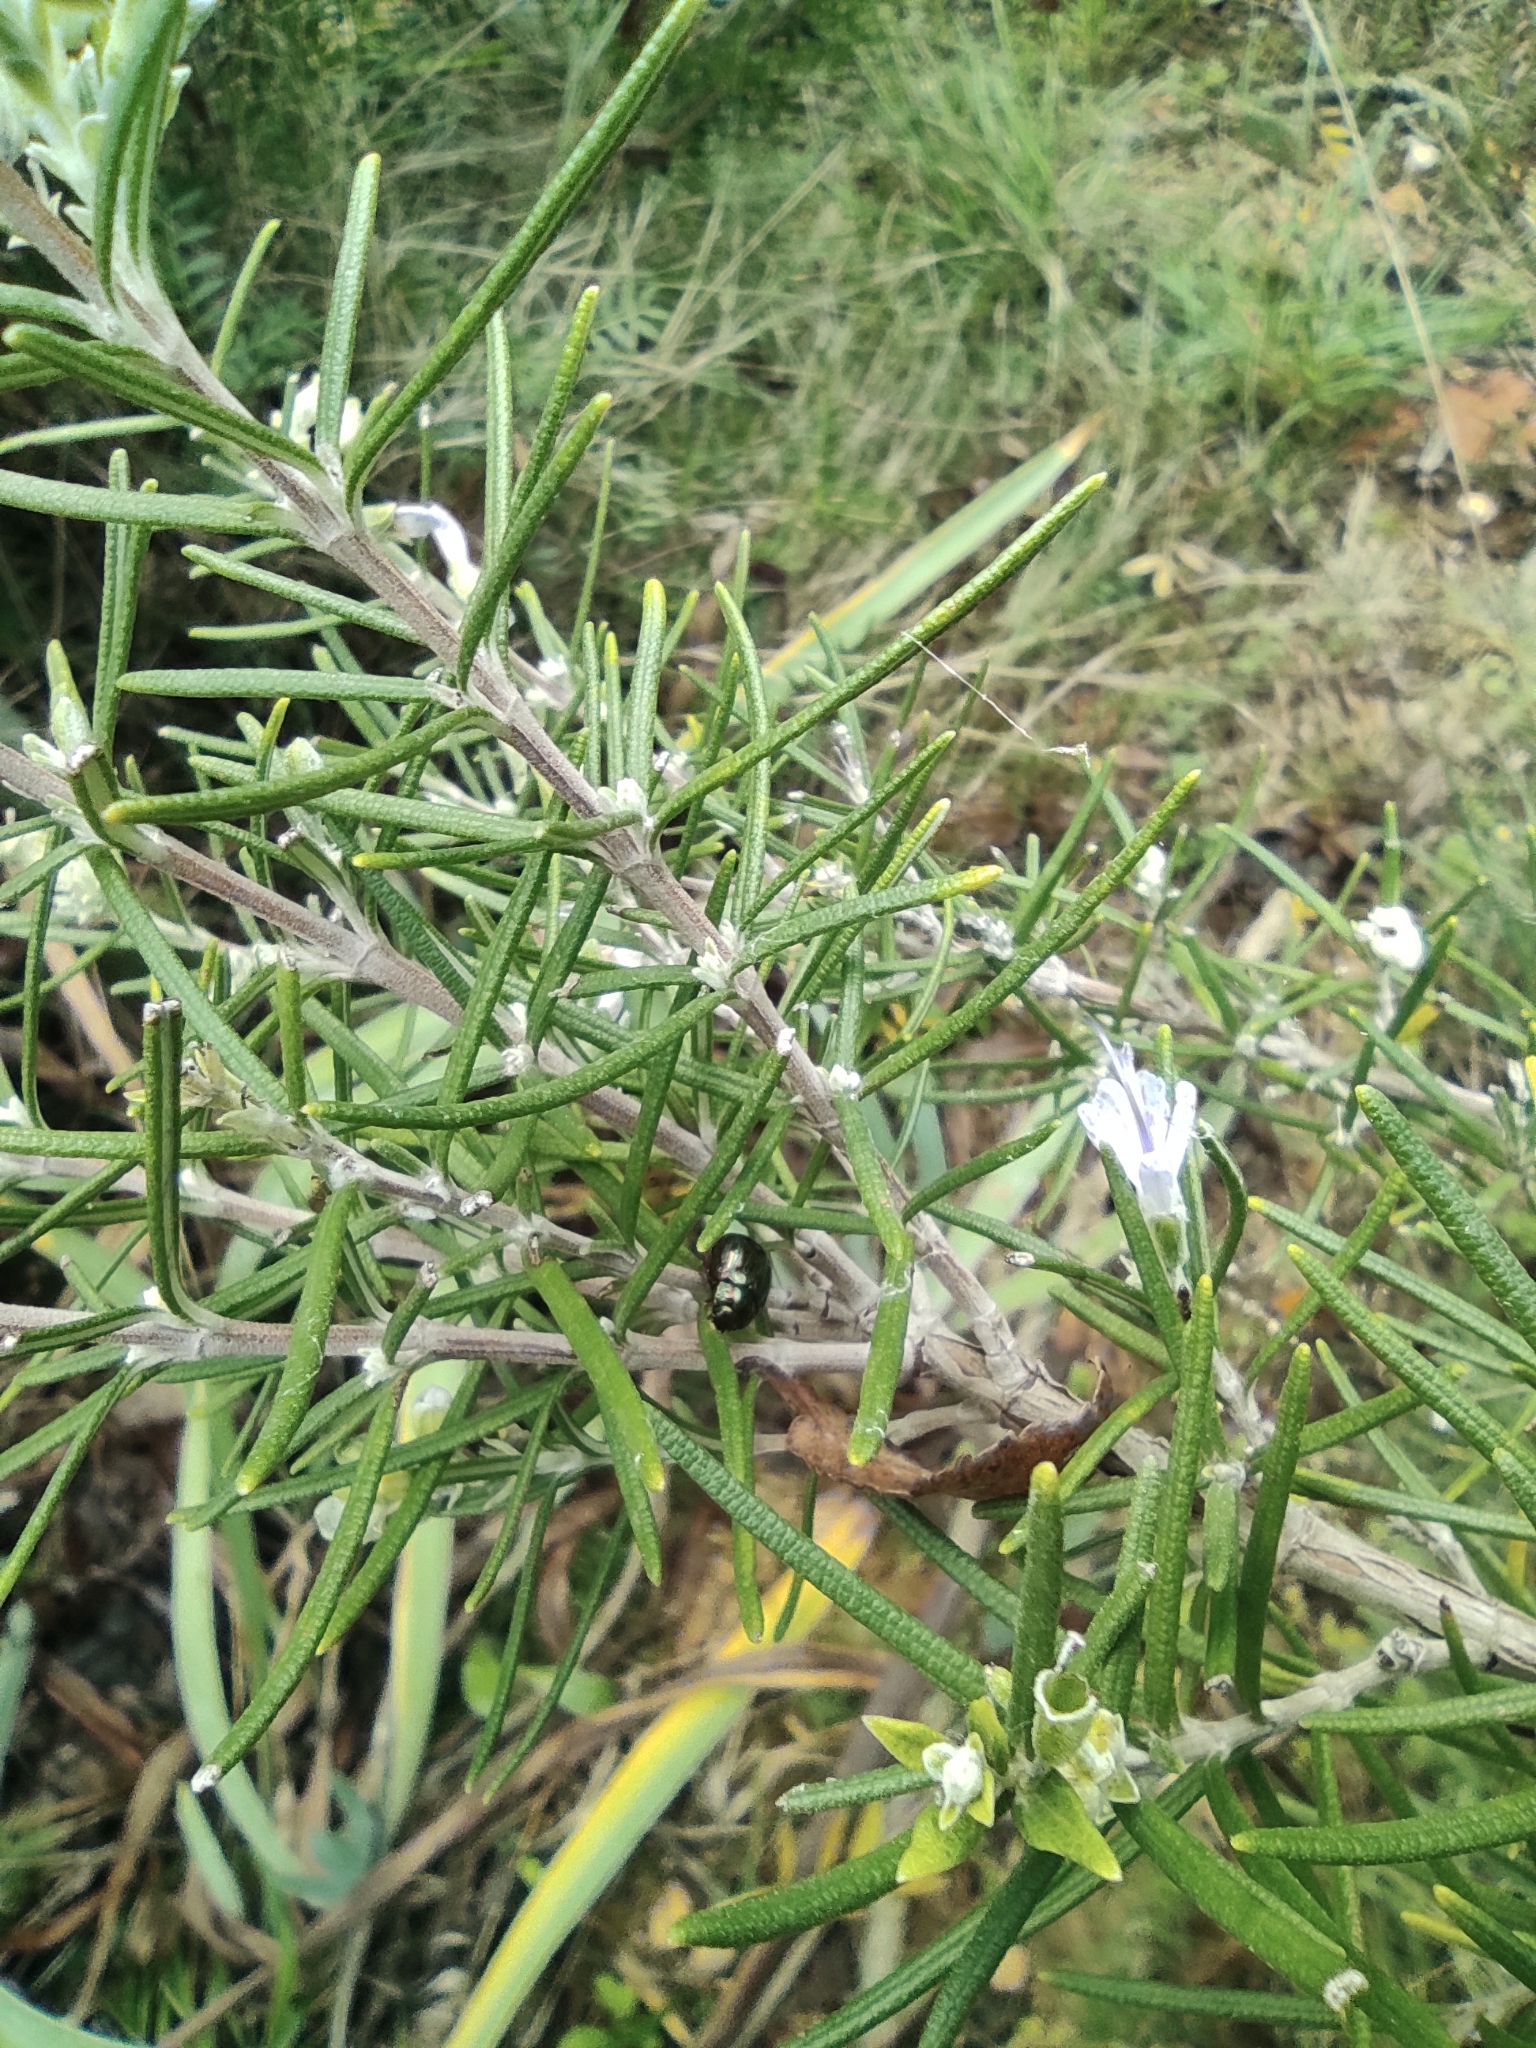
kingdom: Animalia
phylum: Arthropoda
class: Insecta
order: Coleoptera
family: Chrysomelidae
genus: Chrysolina
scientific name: Chrysolina americana
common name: Rosemary beetle
